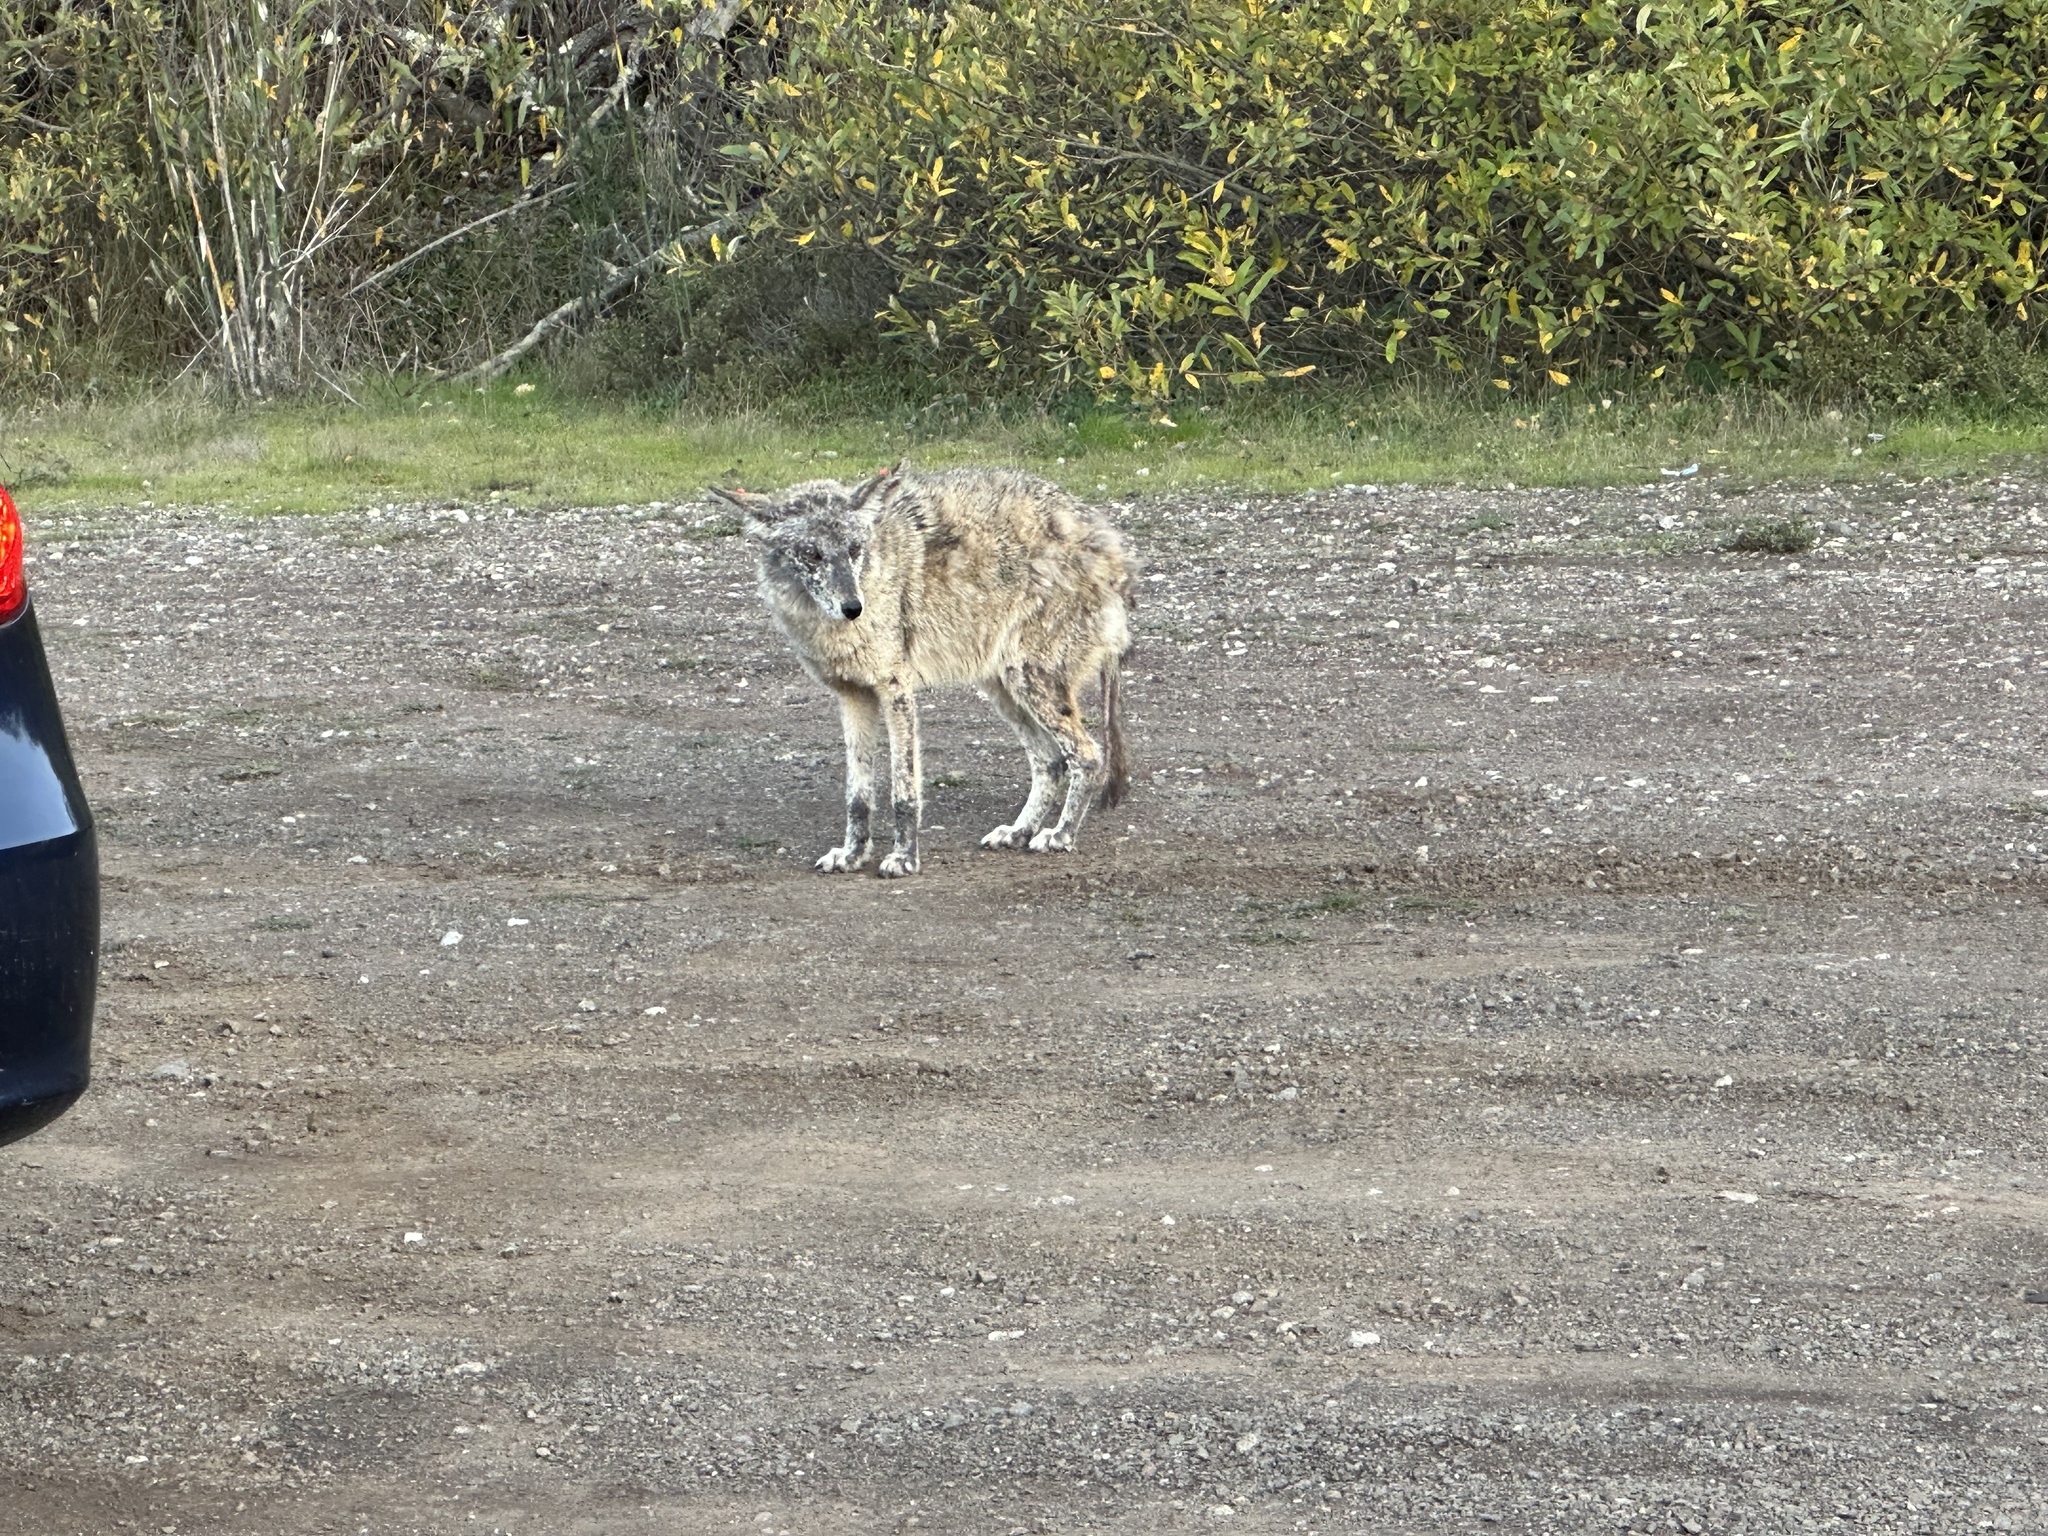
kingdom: Animalia
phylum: Chordata
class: Mammalia
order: Carnivora
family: Canidae
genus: Canis
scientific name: Canis latrans
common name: Coyote
